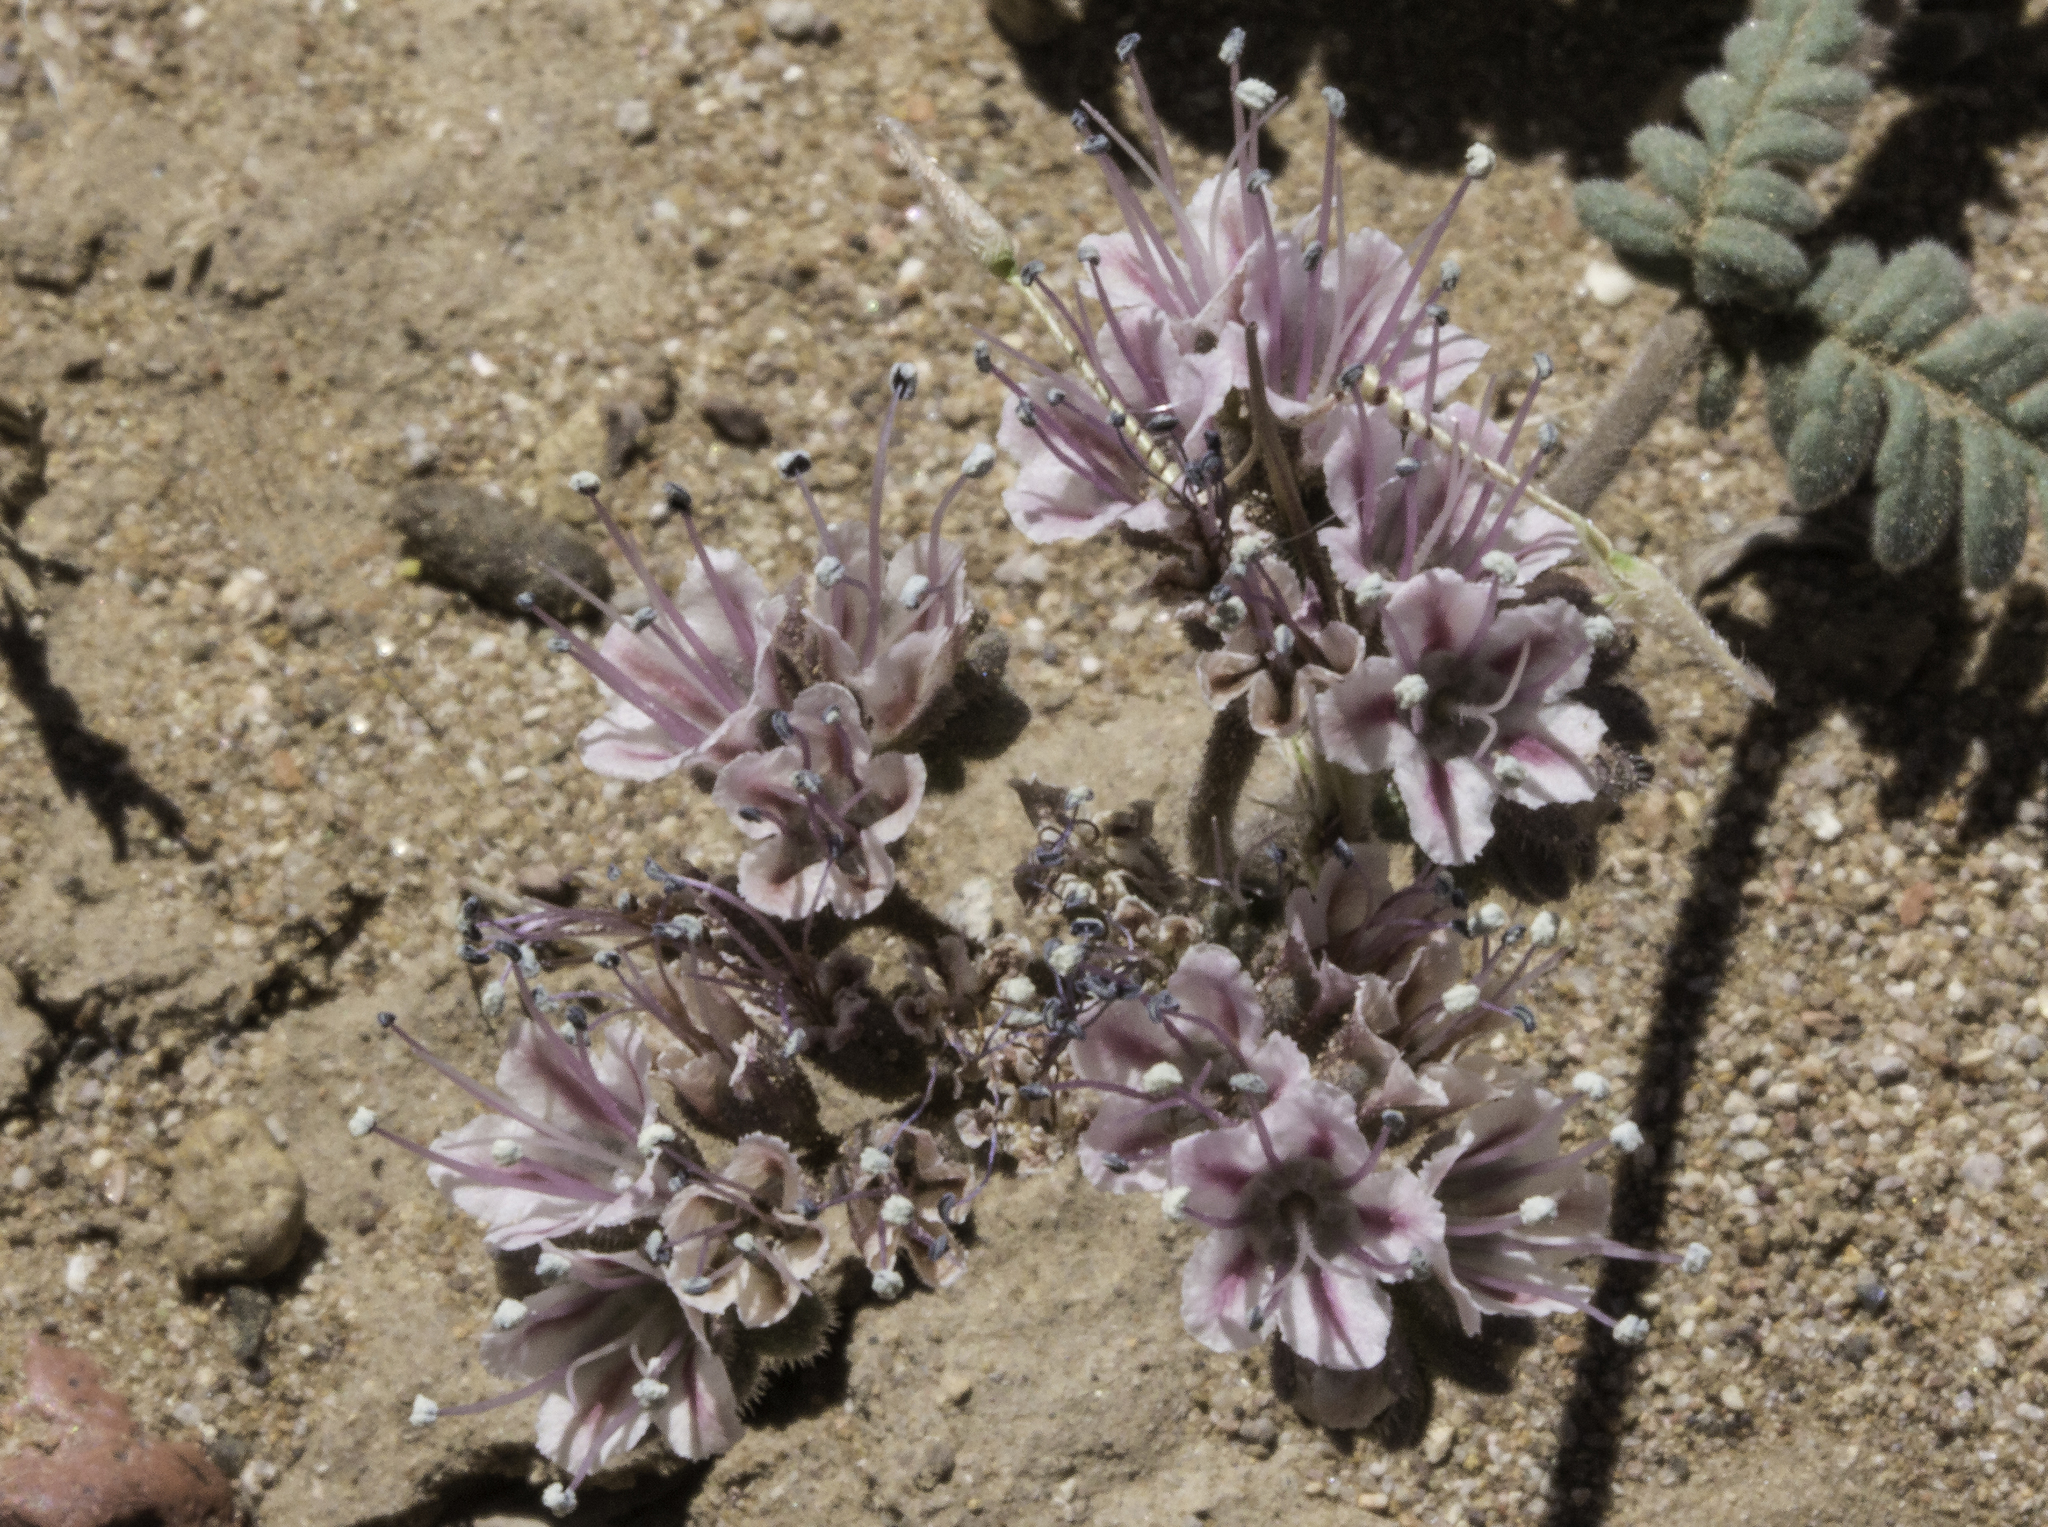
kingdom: Plantae
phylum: Tracheophyta
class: Magnoliopsida
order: Boraginales
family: Hydrophyllaceae
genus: Phacelia
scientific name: Phacelia arizonica
